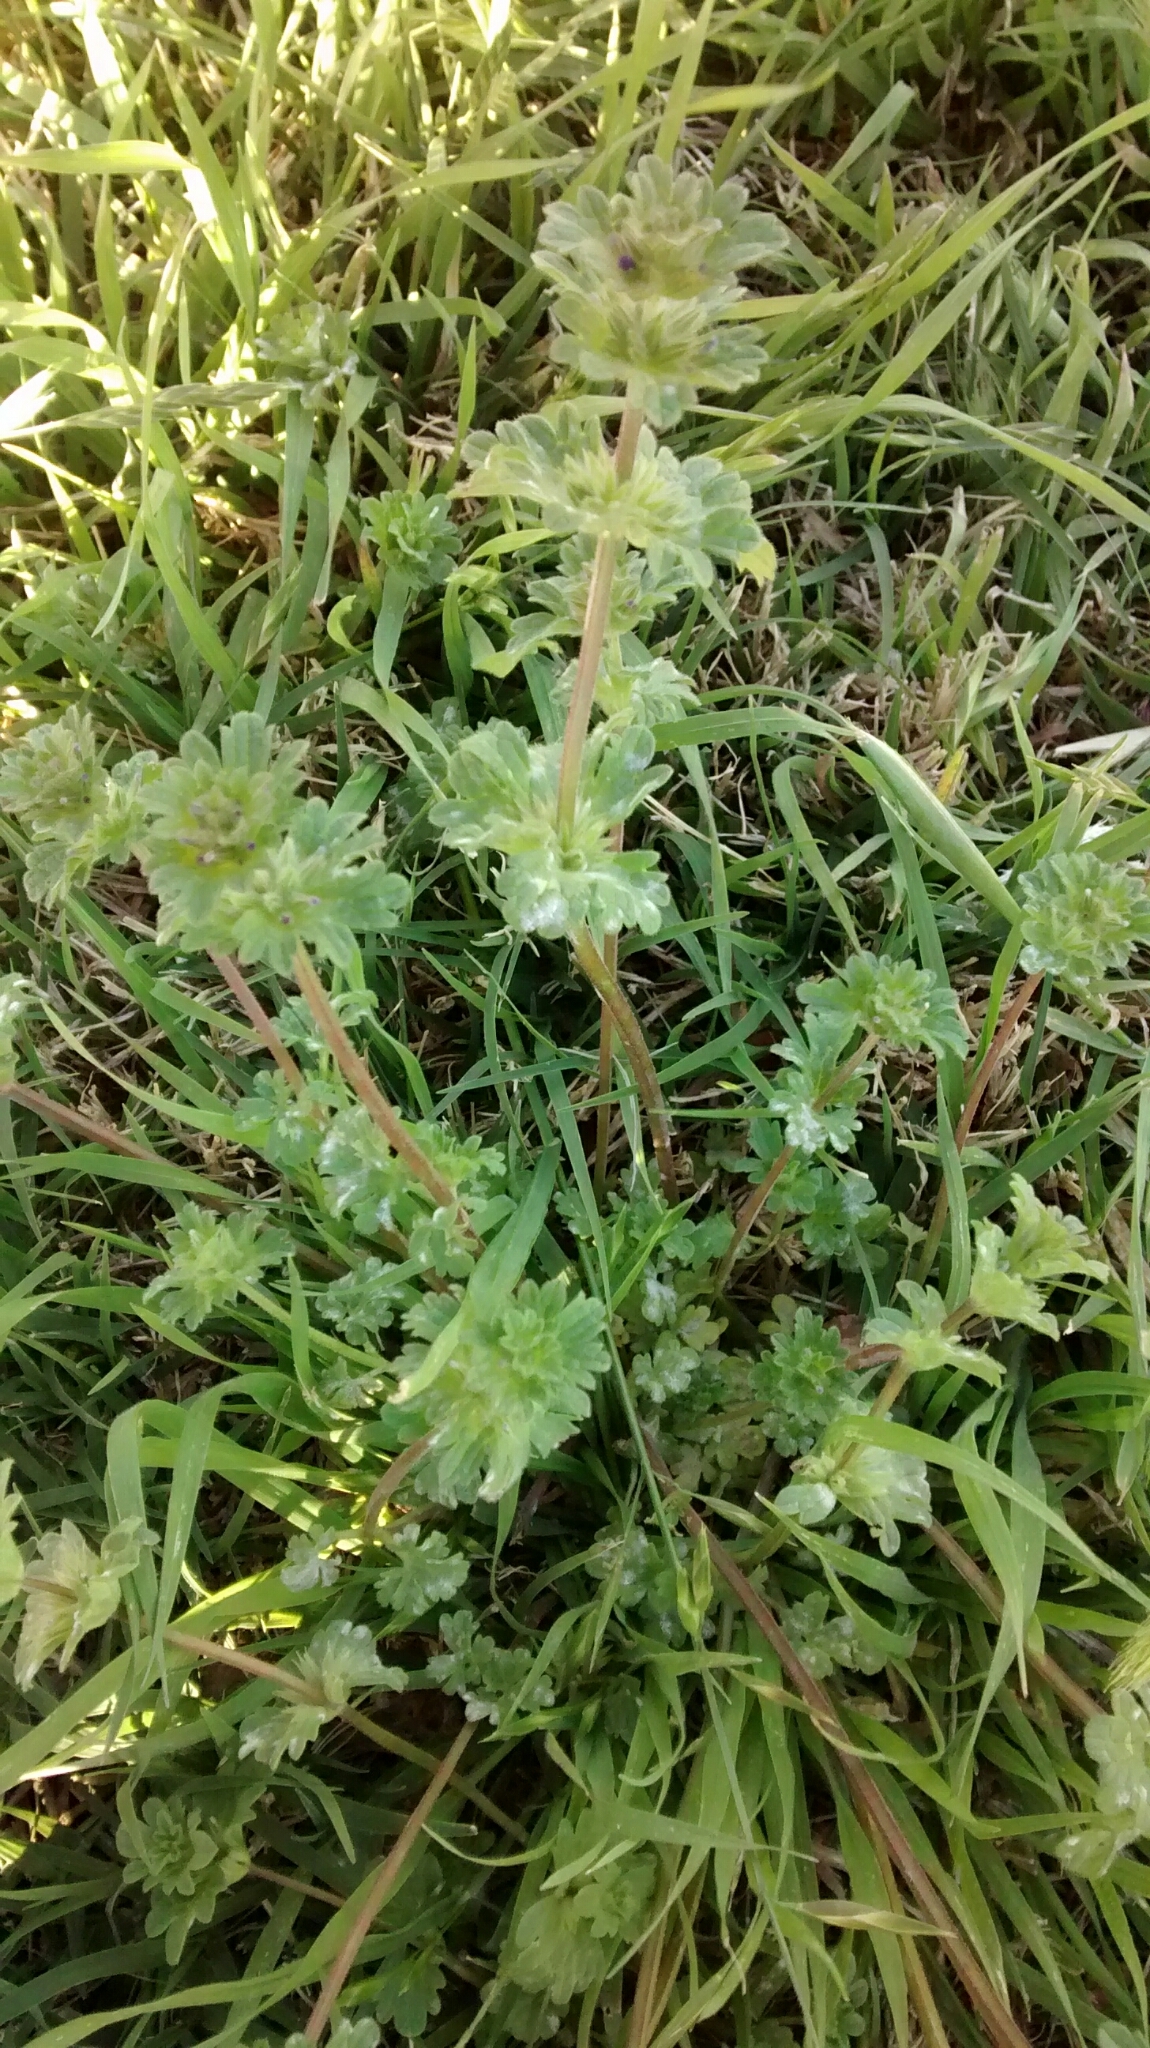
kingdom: Plantae
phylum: Tracheophyta
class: Magnoliopsida
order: Lamiales
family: Lamiaceae
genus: Lamium
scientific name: Lamium amplexicaule
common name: Henbit dead-nettle
